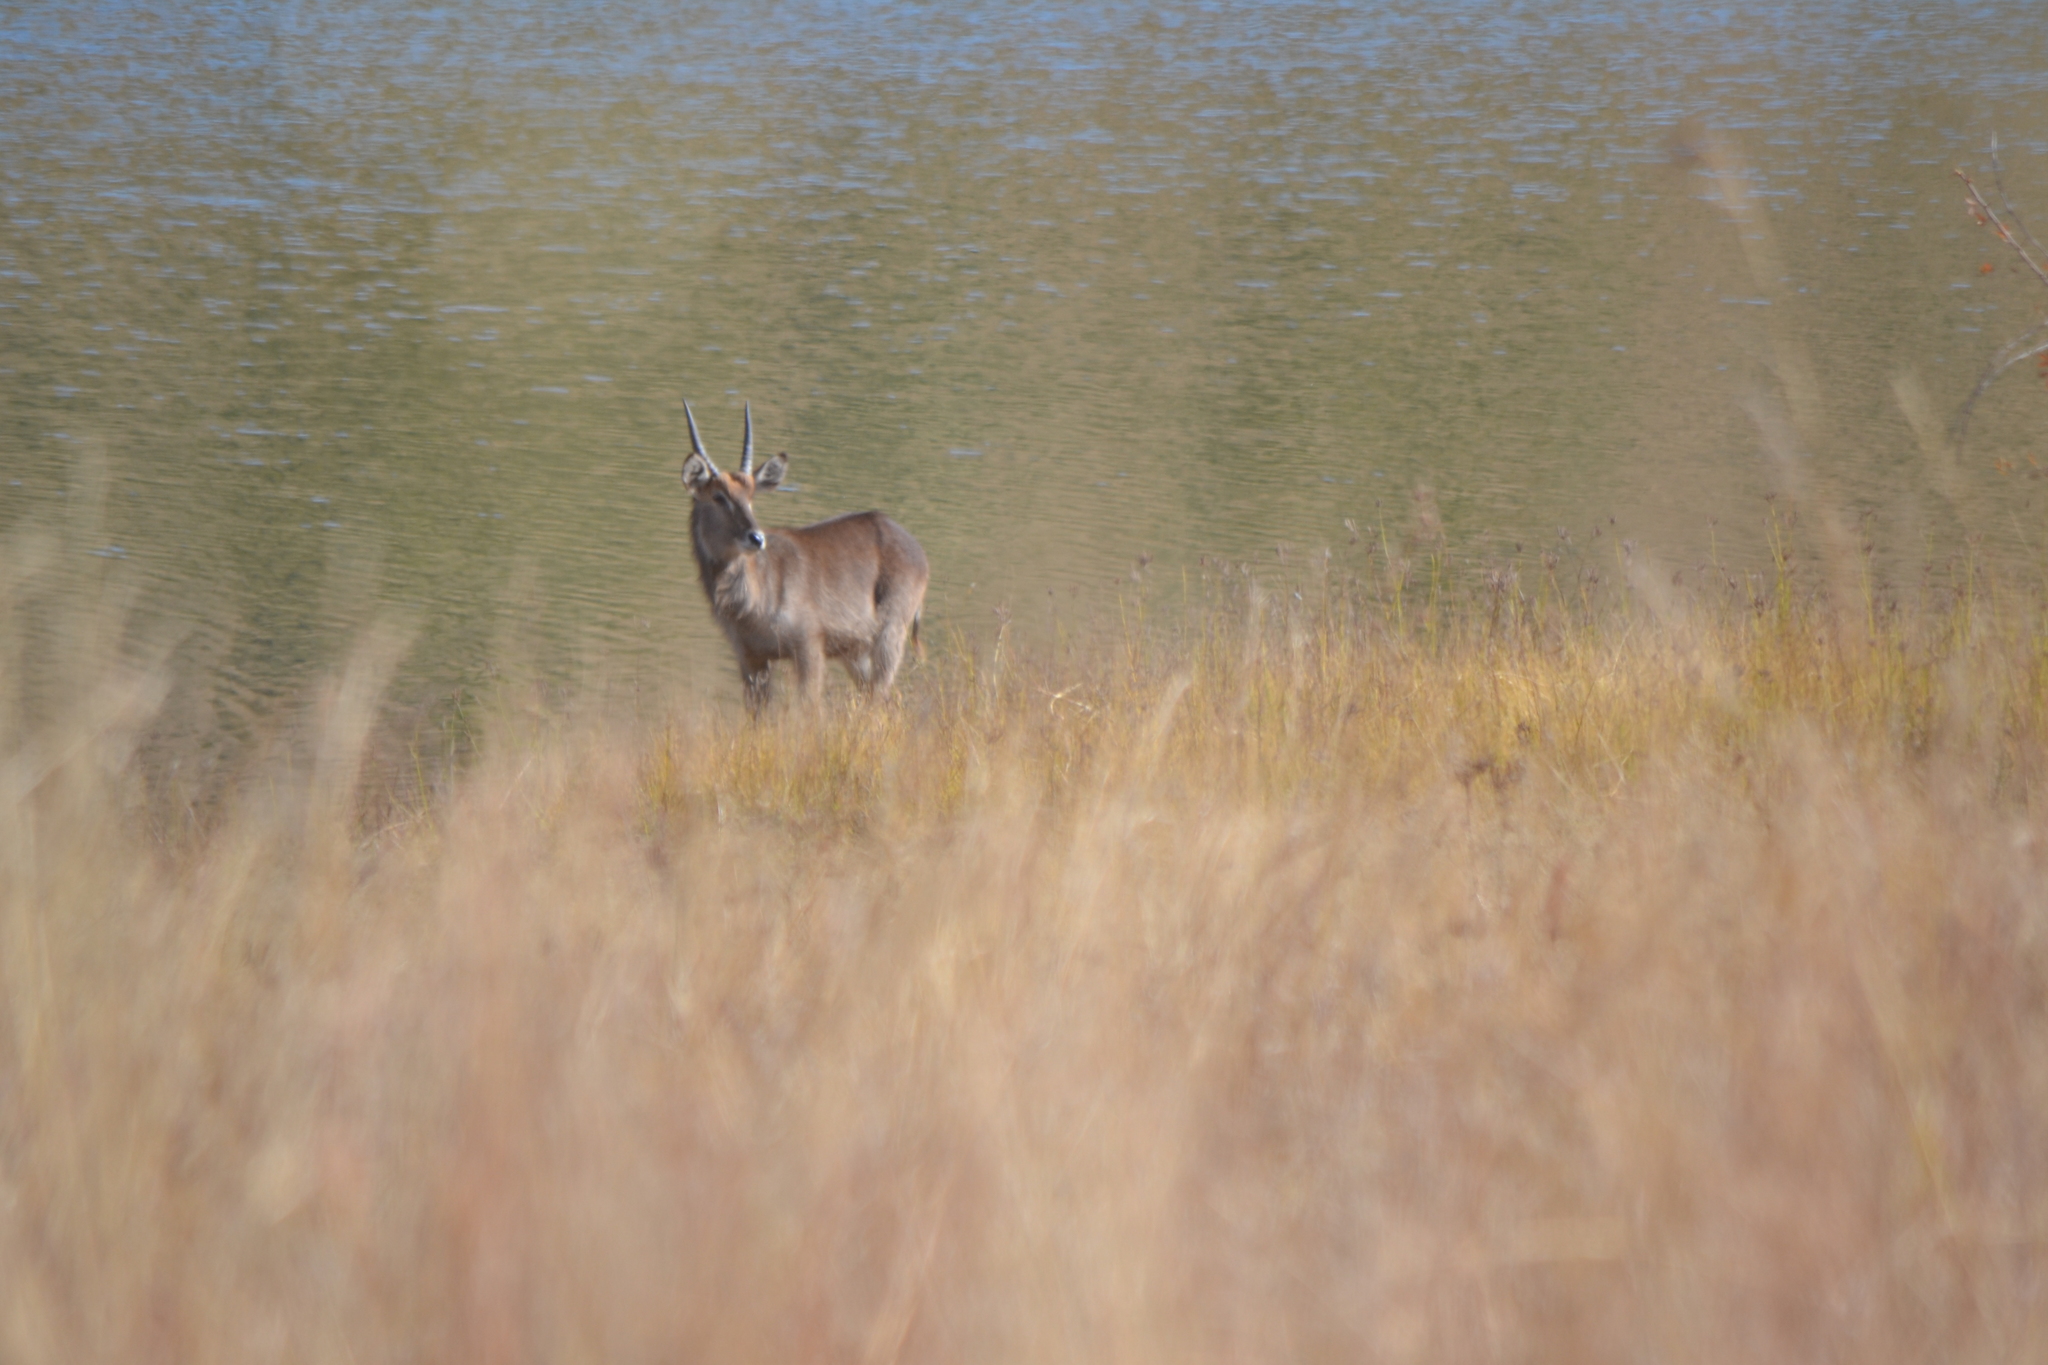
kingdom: Animalia
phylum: Chordata
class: Mammalia
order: Artiodactyla
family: Bovidae
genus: Kobus
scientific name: Kobus ellipsiprymnus
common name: Waterbuck
